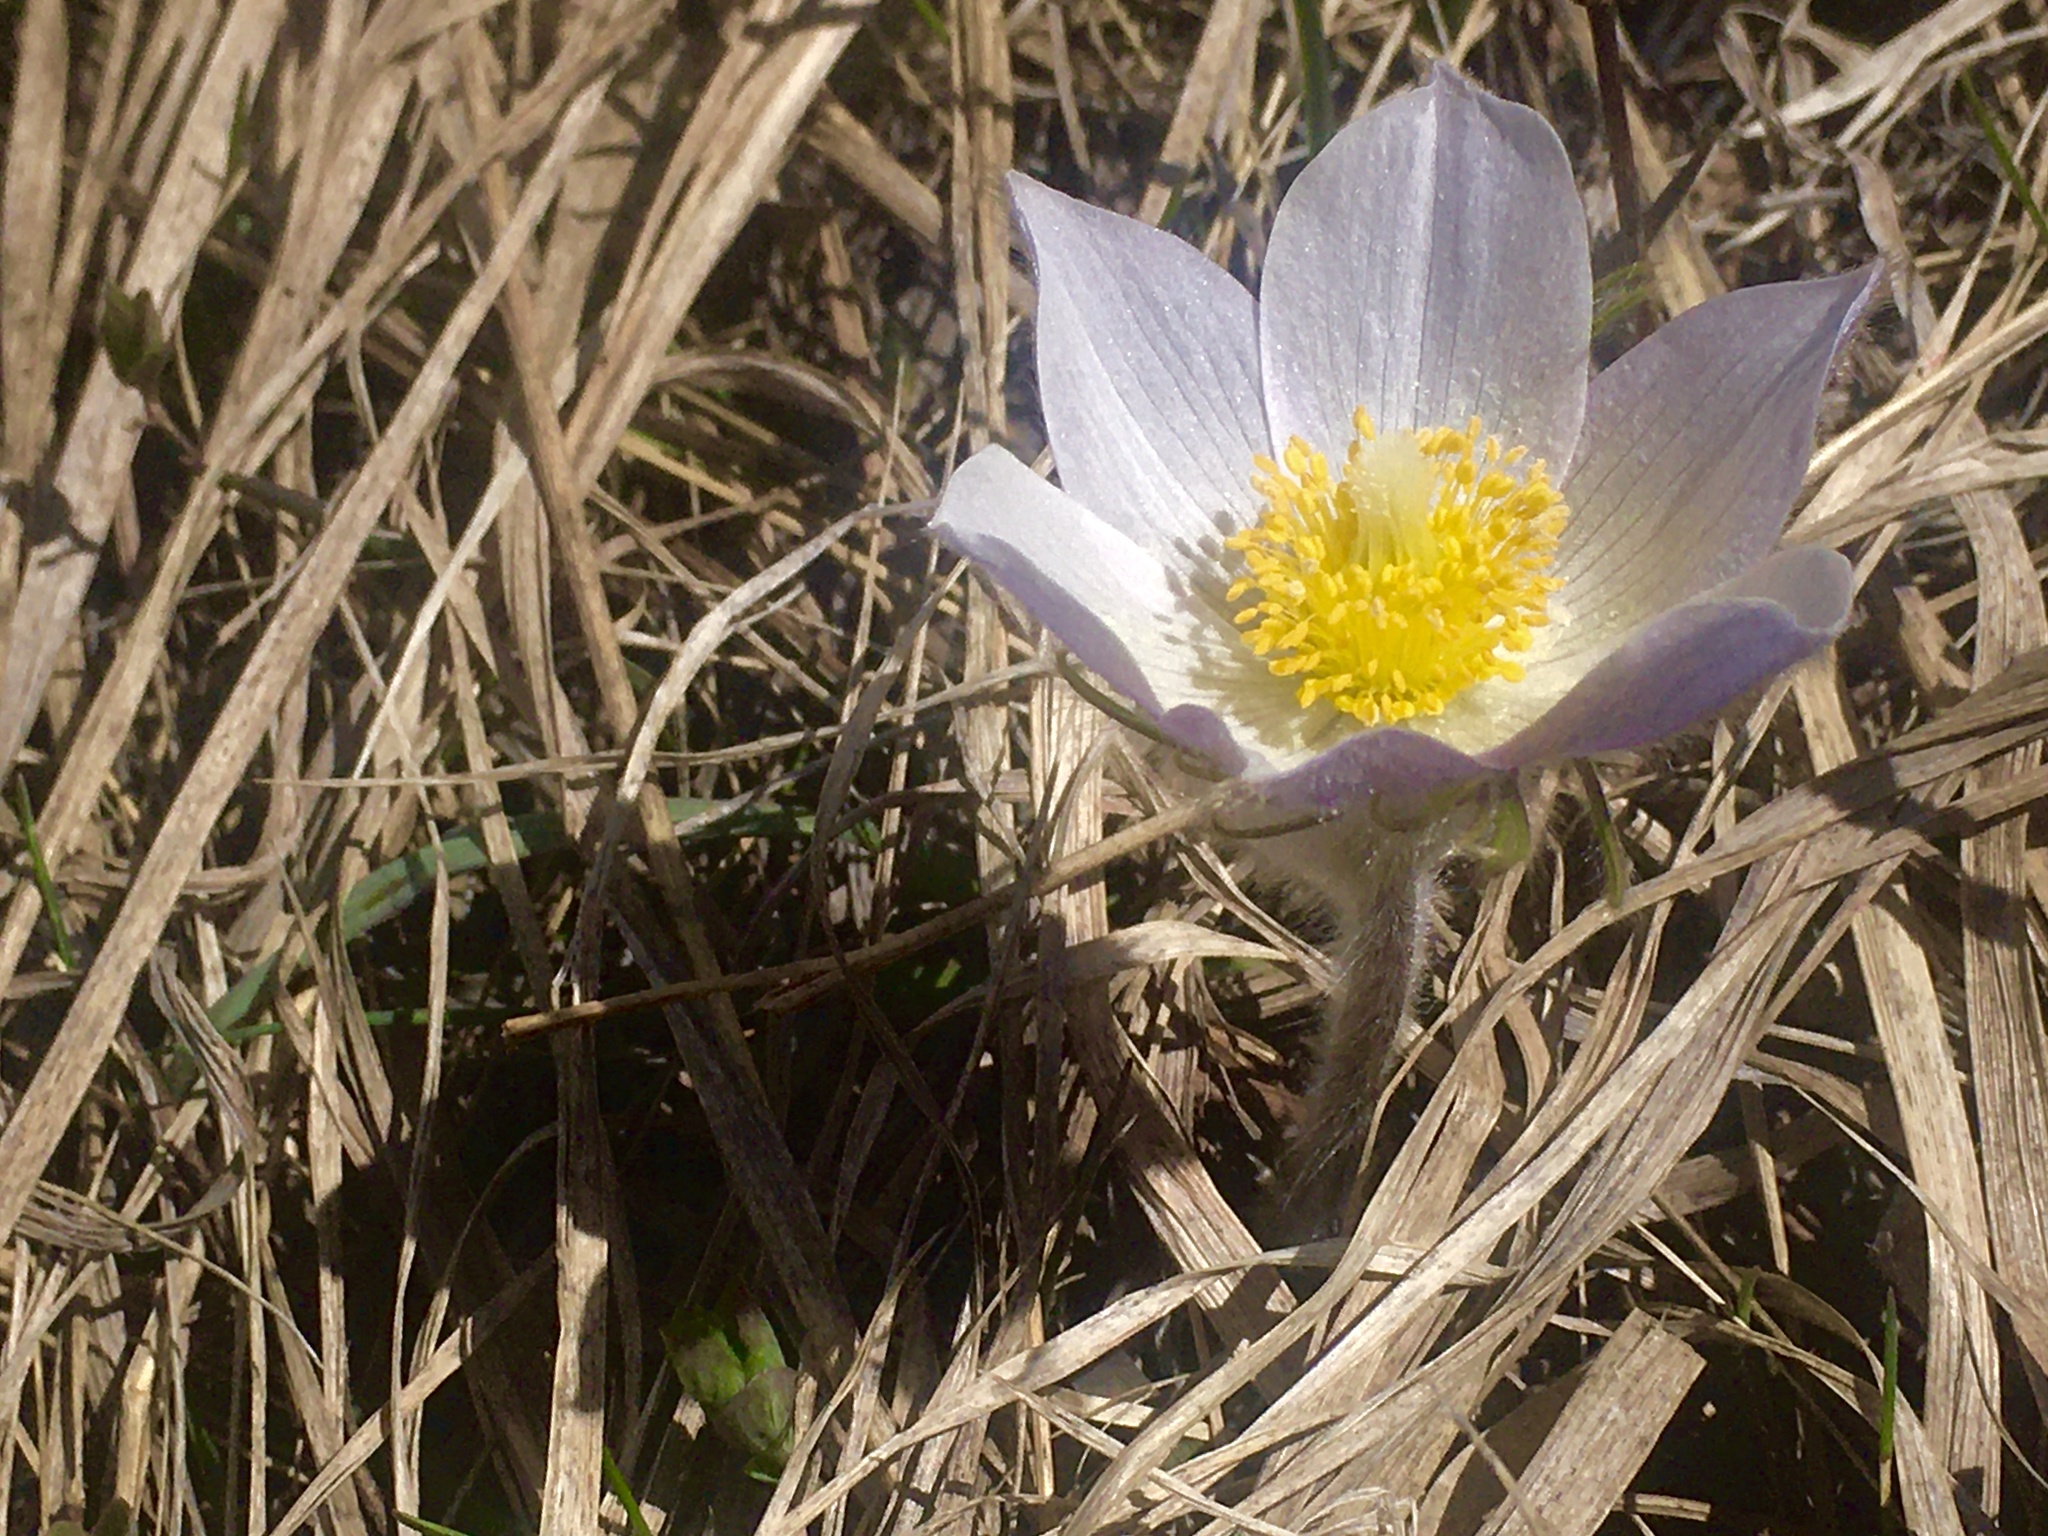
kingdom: Plantae
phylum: Tracheophyta
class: Magnoliopsida
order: Ranunculales
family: Ranunculaceae
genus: Pulsatilla
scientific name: Pulsatilla nuttalliana
